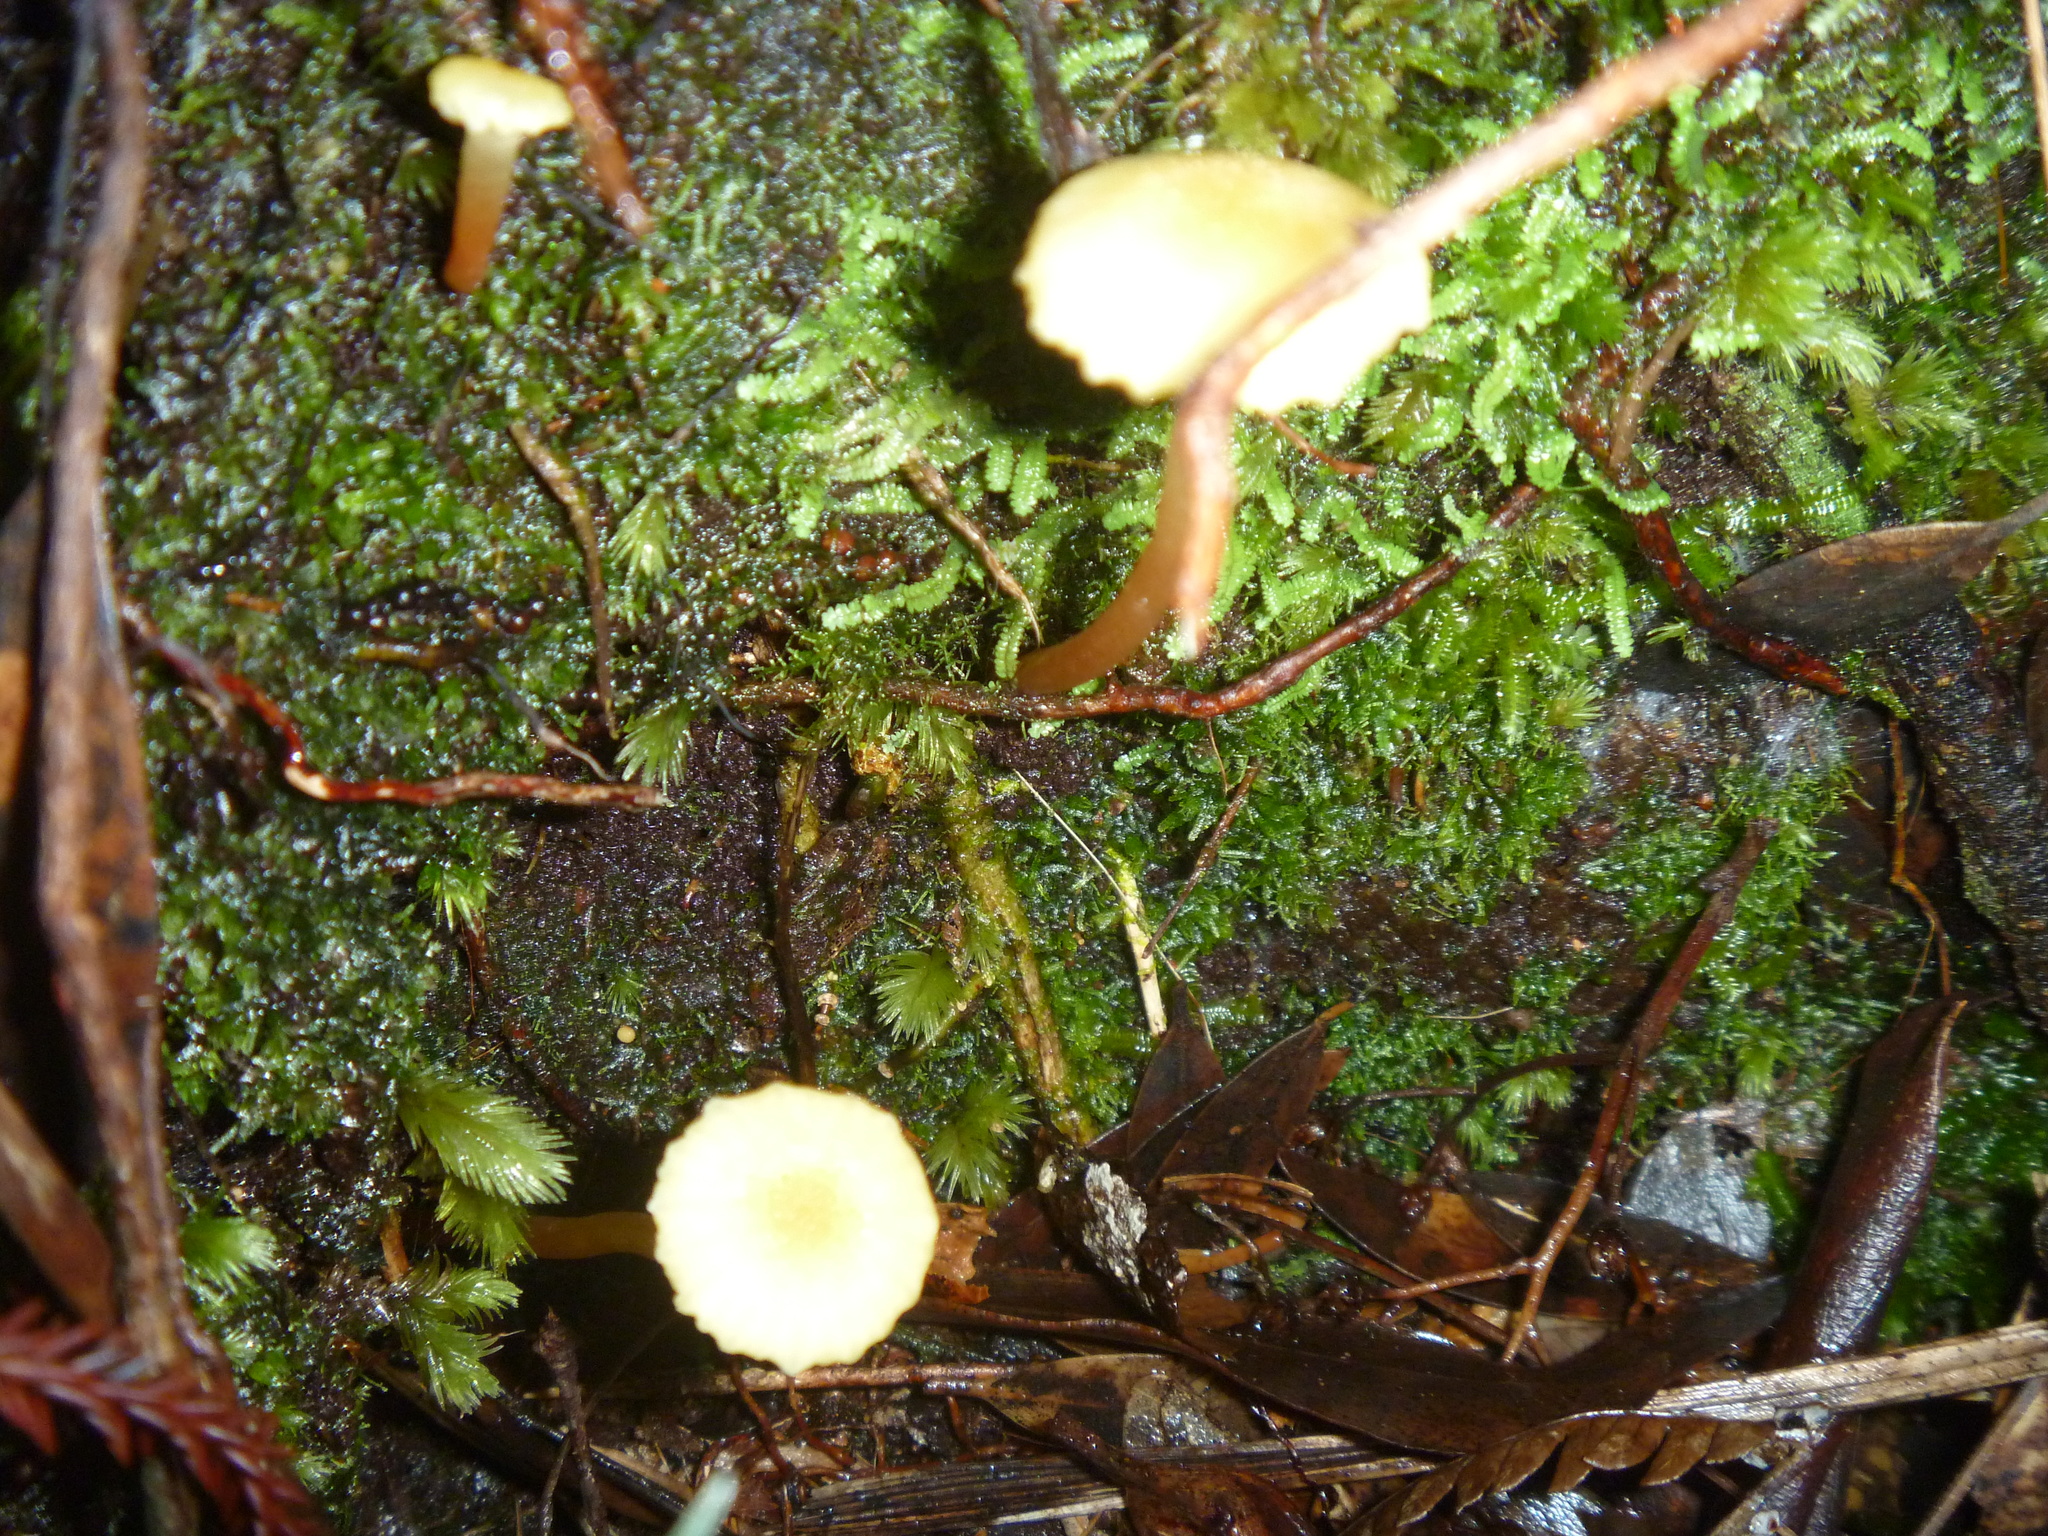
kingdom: Fungi
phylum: Basidiomycota
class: Agaricomycetes
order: Agaricales
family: Hygrophoraceae
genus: Hygrocybe
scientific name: Hygrocybe miniceps
